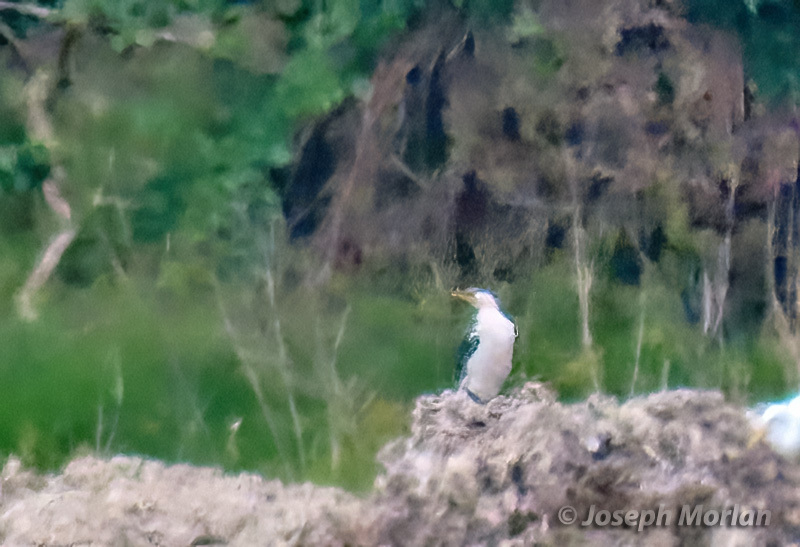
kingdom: Animalia
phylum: Chordata
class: Aves
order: Suliformes
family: Phalacrocoracidae
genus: Microcarbo
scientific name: Microcarbo melanoleucos
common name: Little pied cormorant
